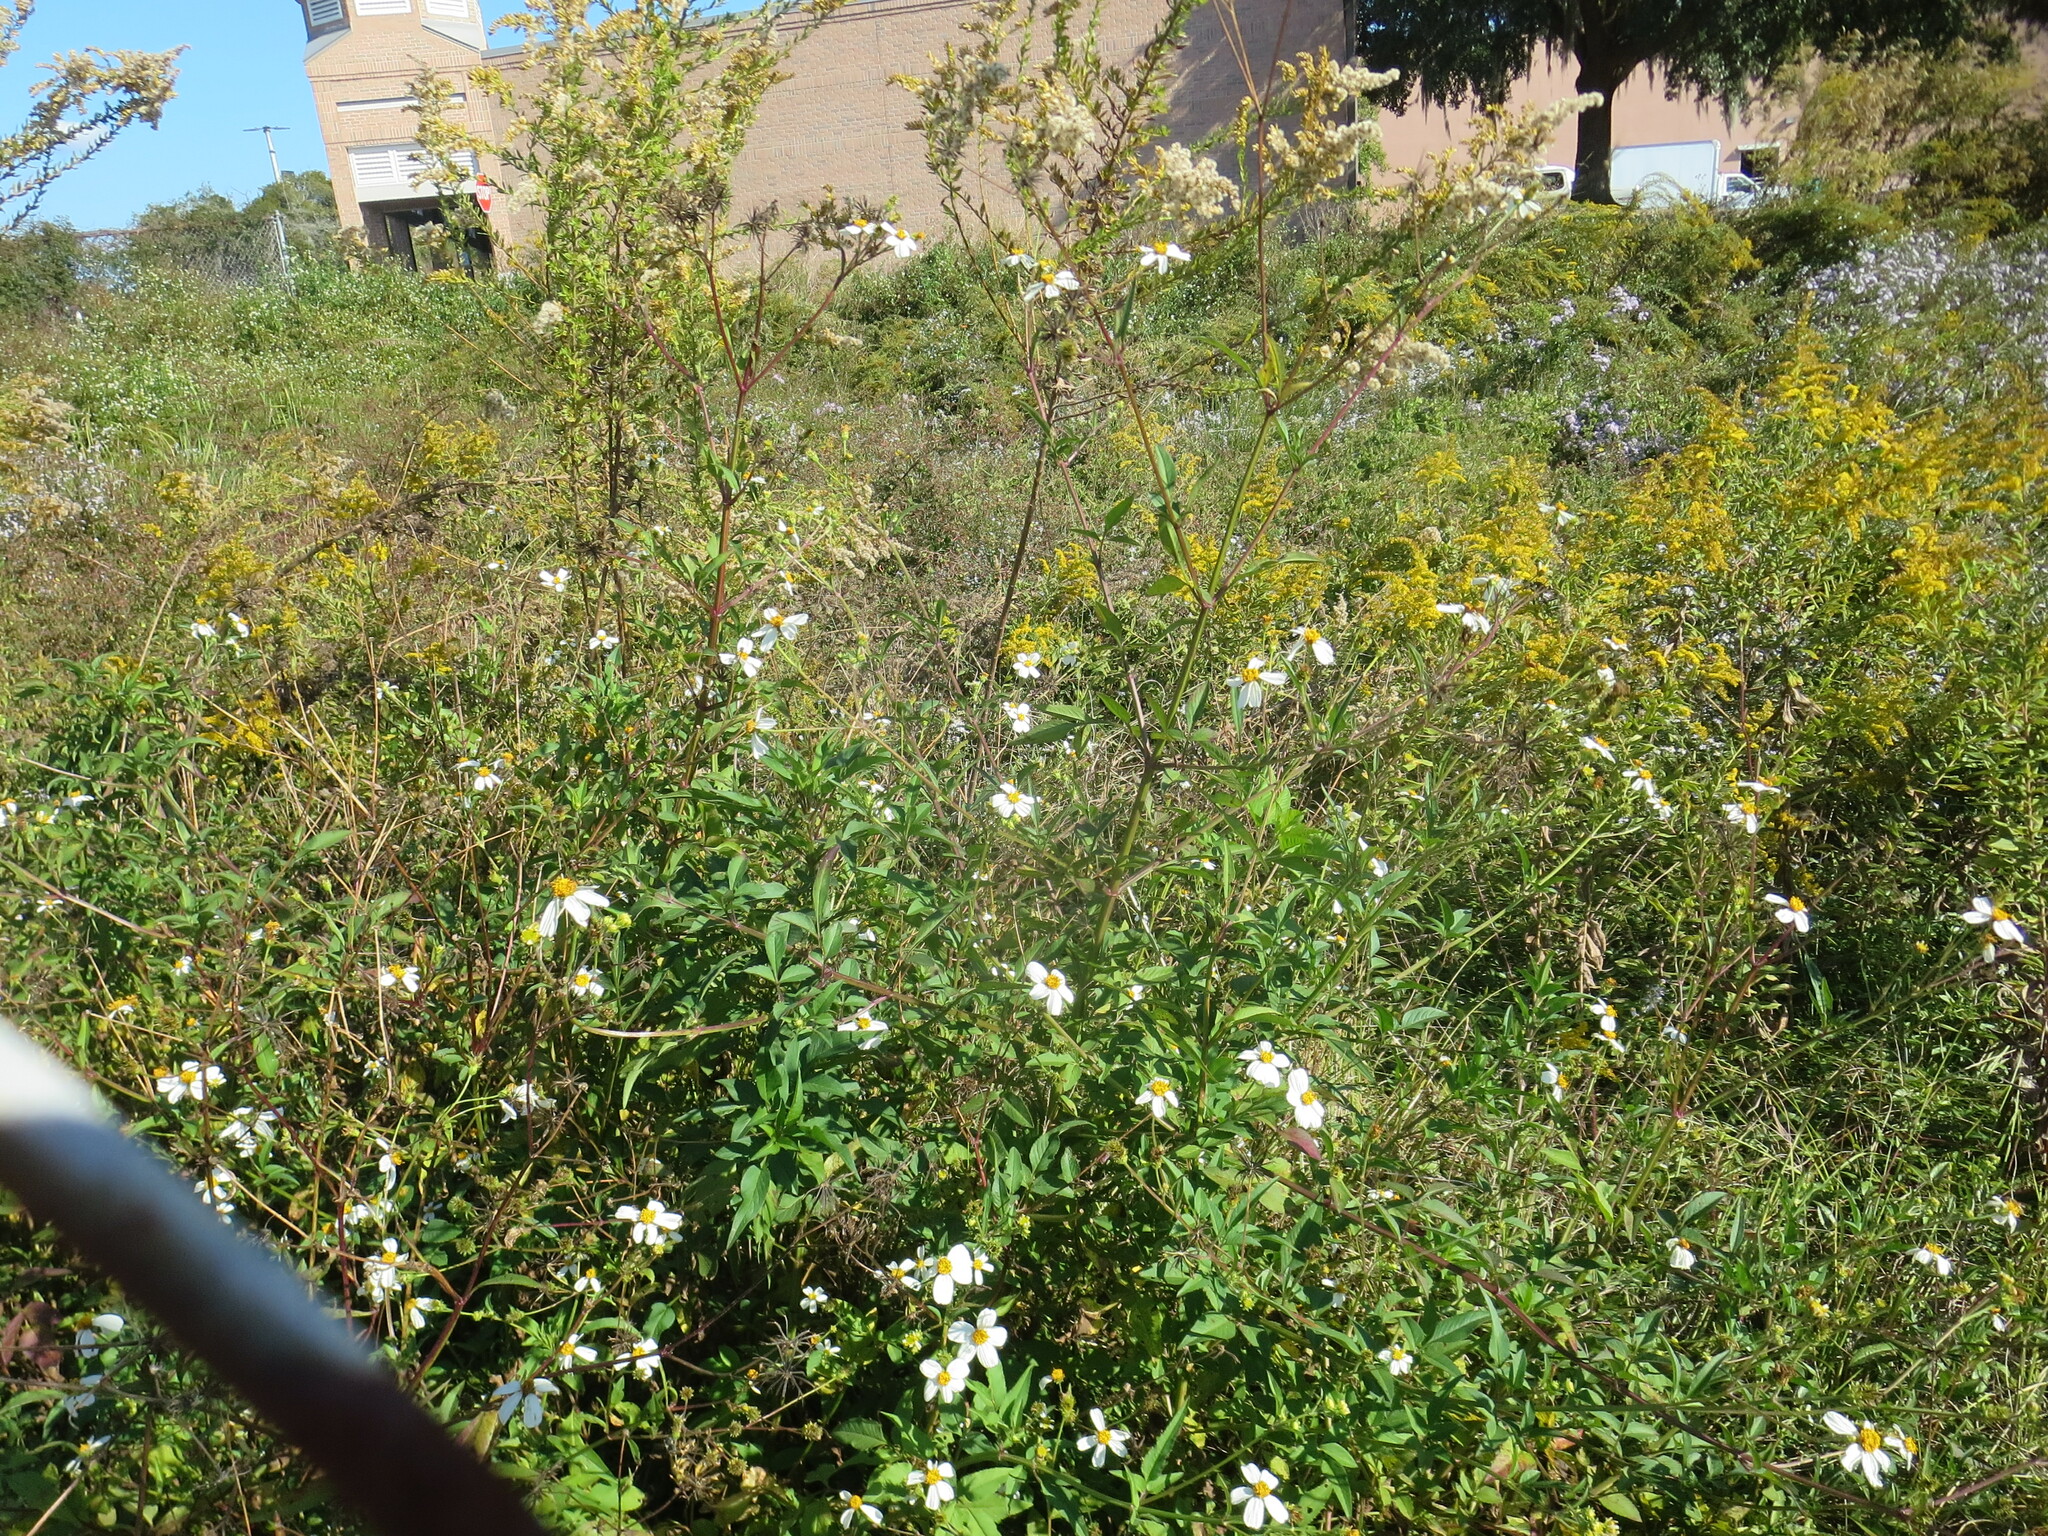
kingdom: Plantae
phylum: Tracheophyta
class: Magnoliopsida
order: Asterales
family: Asteraceae
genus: Bidens
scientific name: Bidens alba
